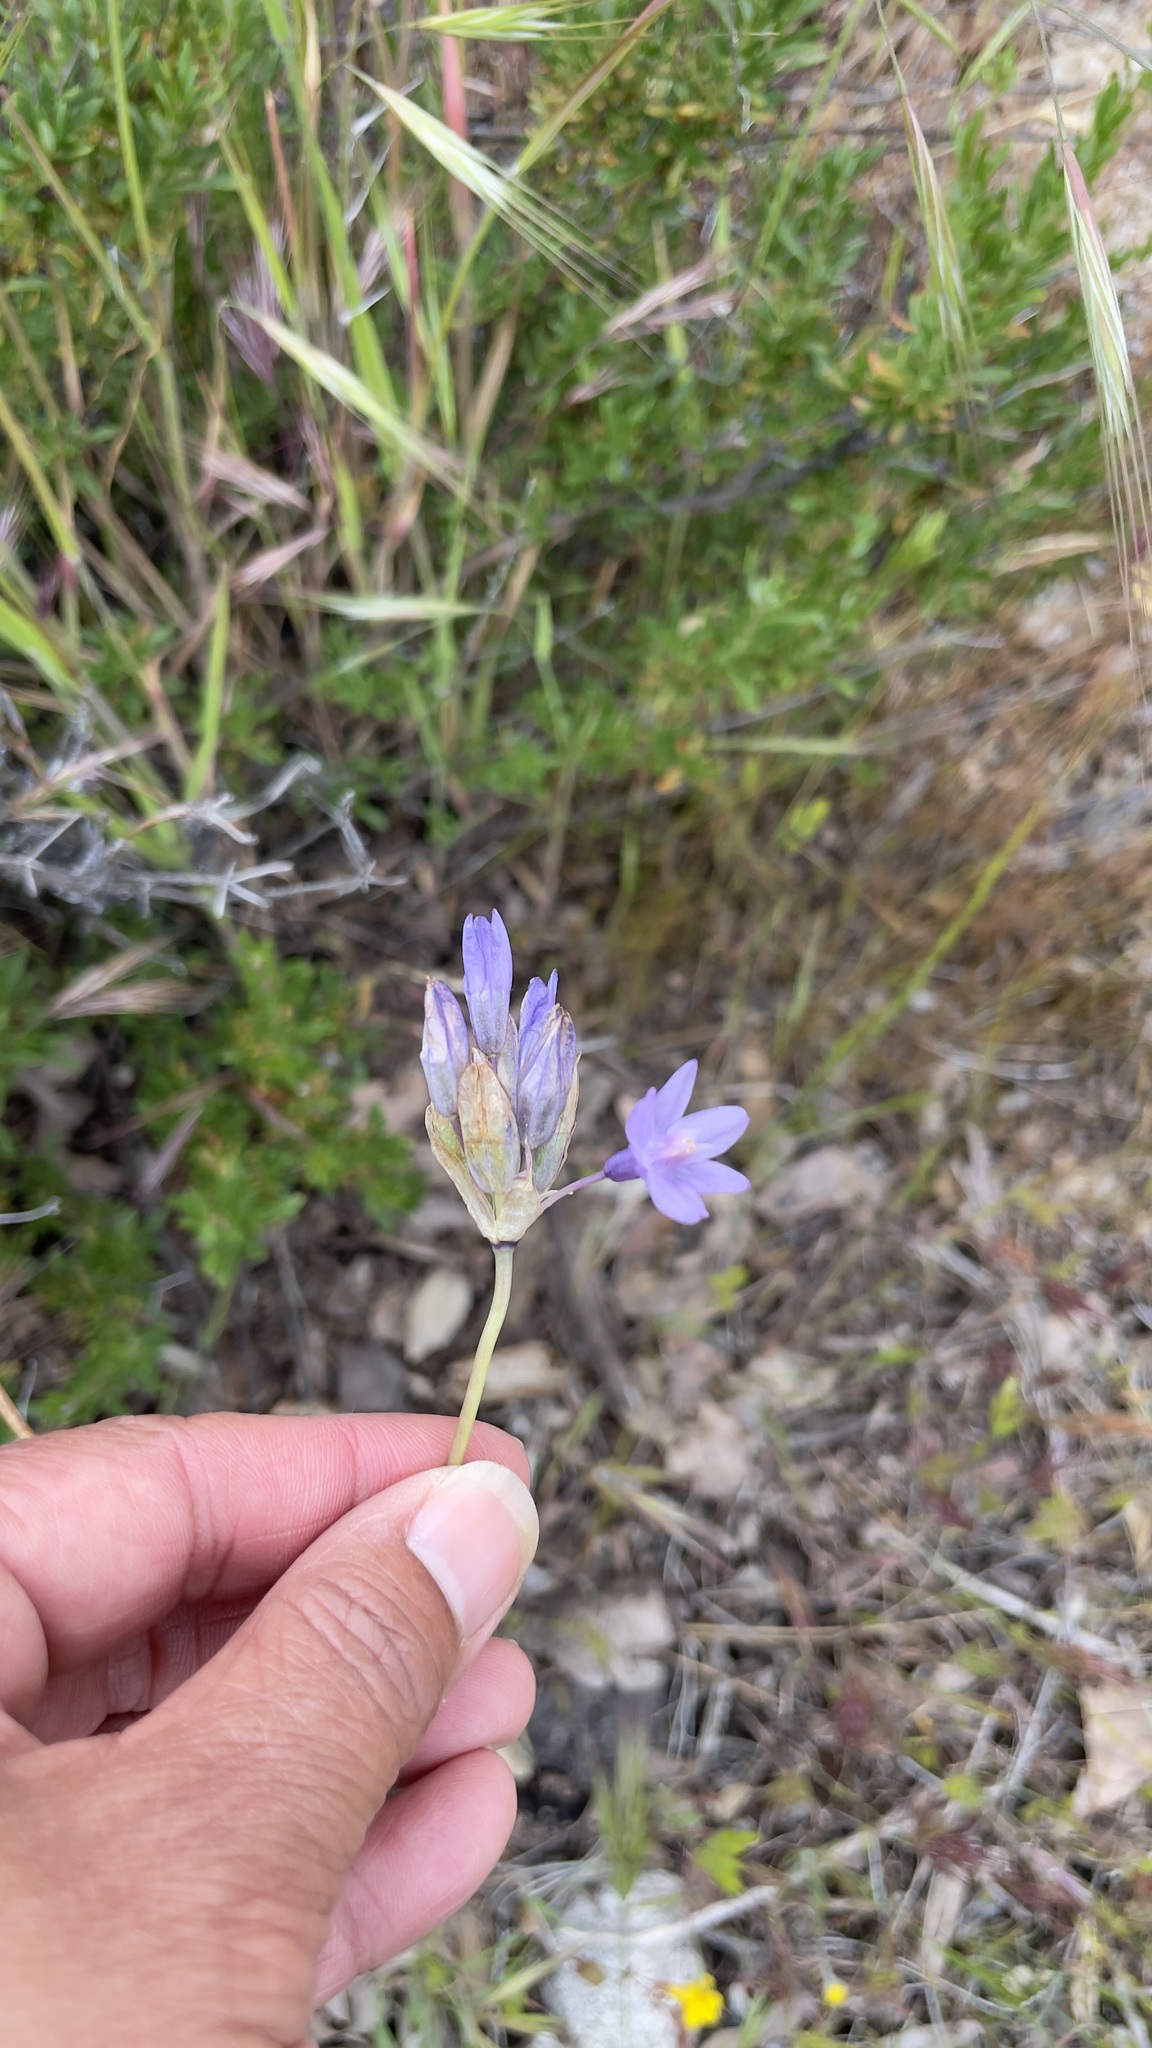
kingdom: Plantae
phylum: Tracheophyta
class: Liliopsida
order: Asparagales
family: Asparagaceae
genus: Dipterostemon
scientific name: Dipterostemon capitatus
